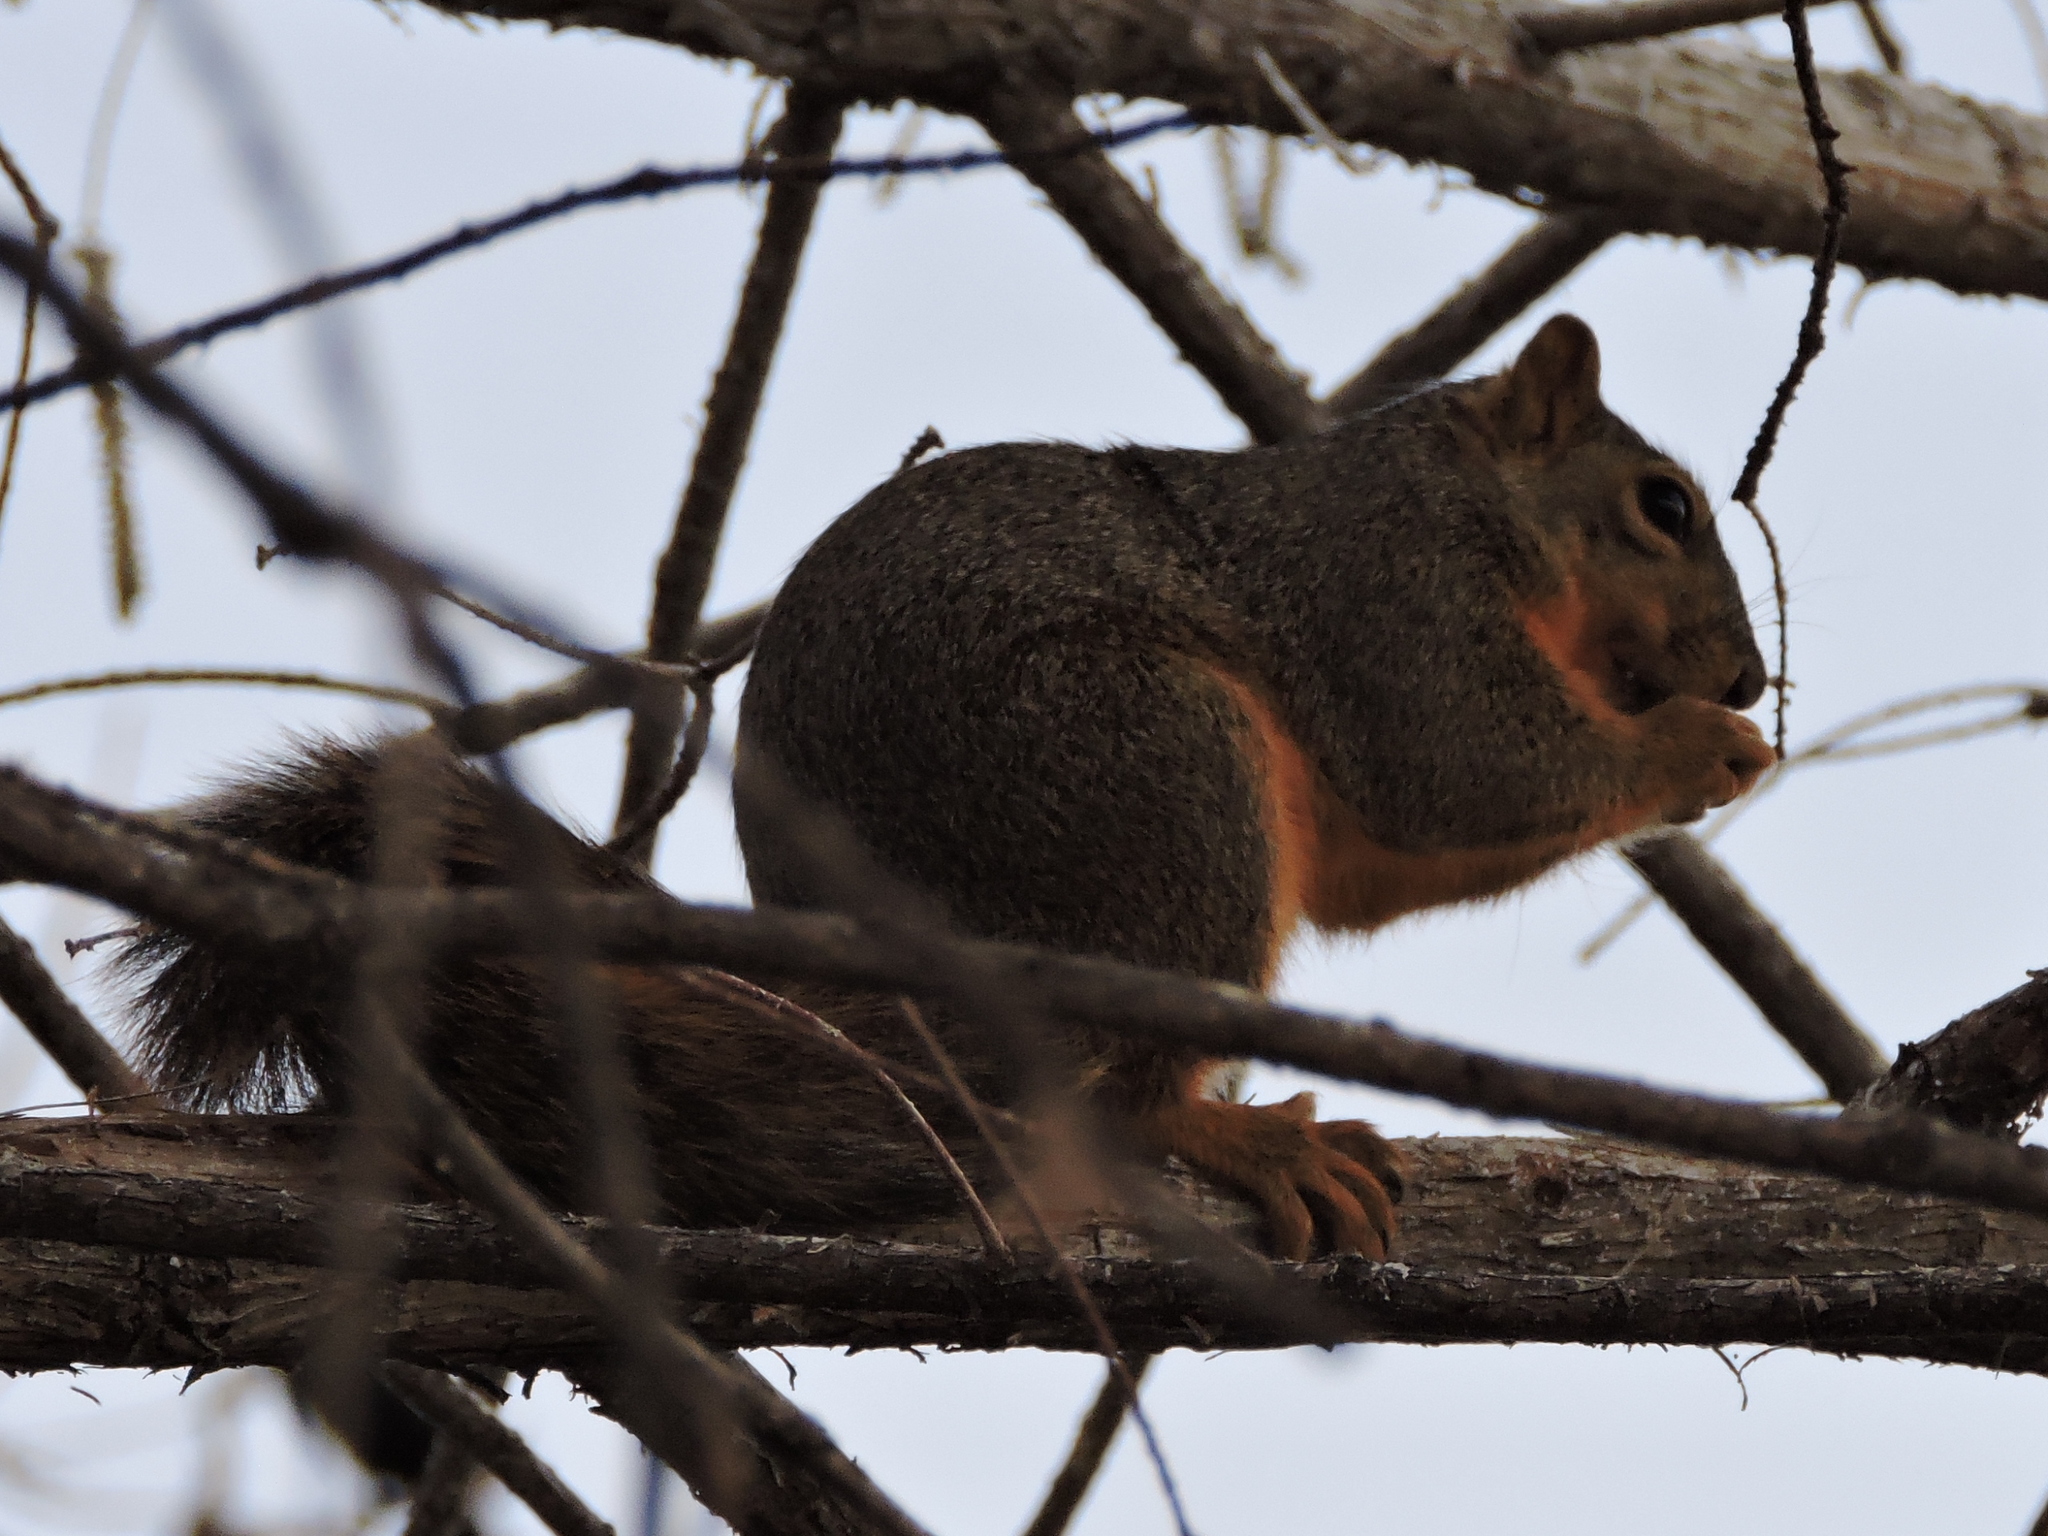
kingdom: Animalia
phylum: Chordata
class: Mammalia
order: Rodentia
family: Sciuridae
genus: Sciurus
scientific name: Sciurus niger
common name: Fox squirrel
